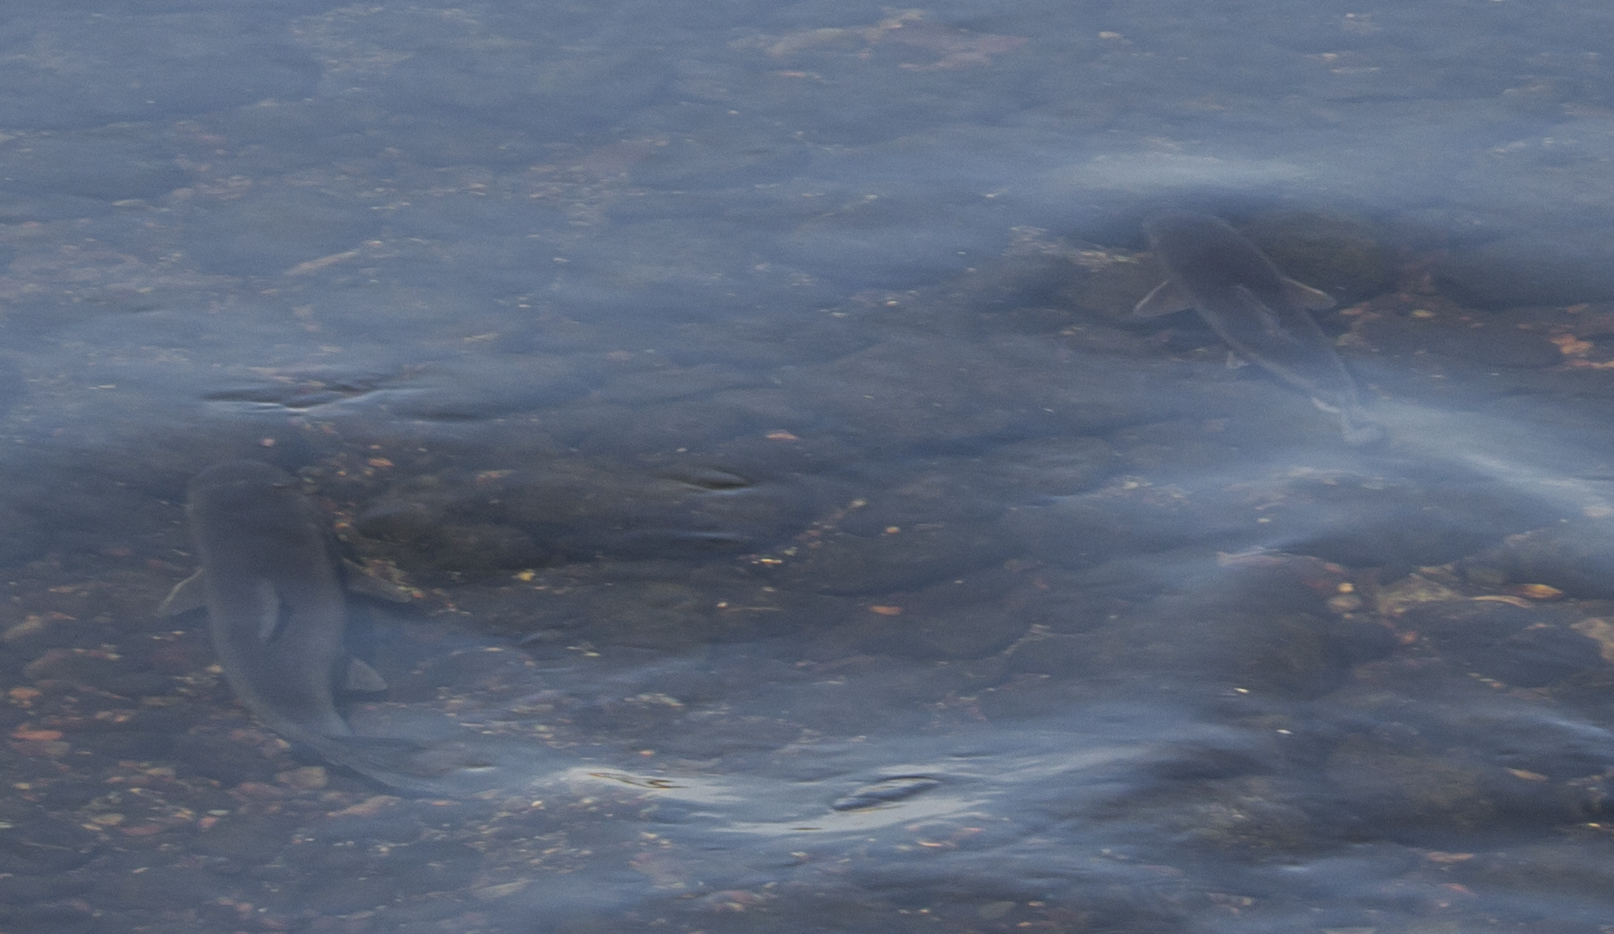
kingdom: Animalia
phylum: Chordata
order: Cypriniformes
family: Catostomidae
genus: Catostomus
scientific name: Catostomus commersonii
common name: White sucker
